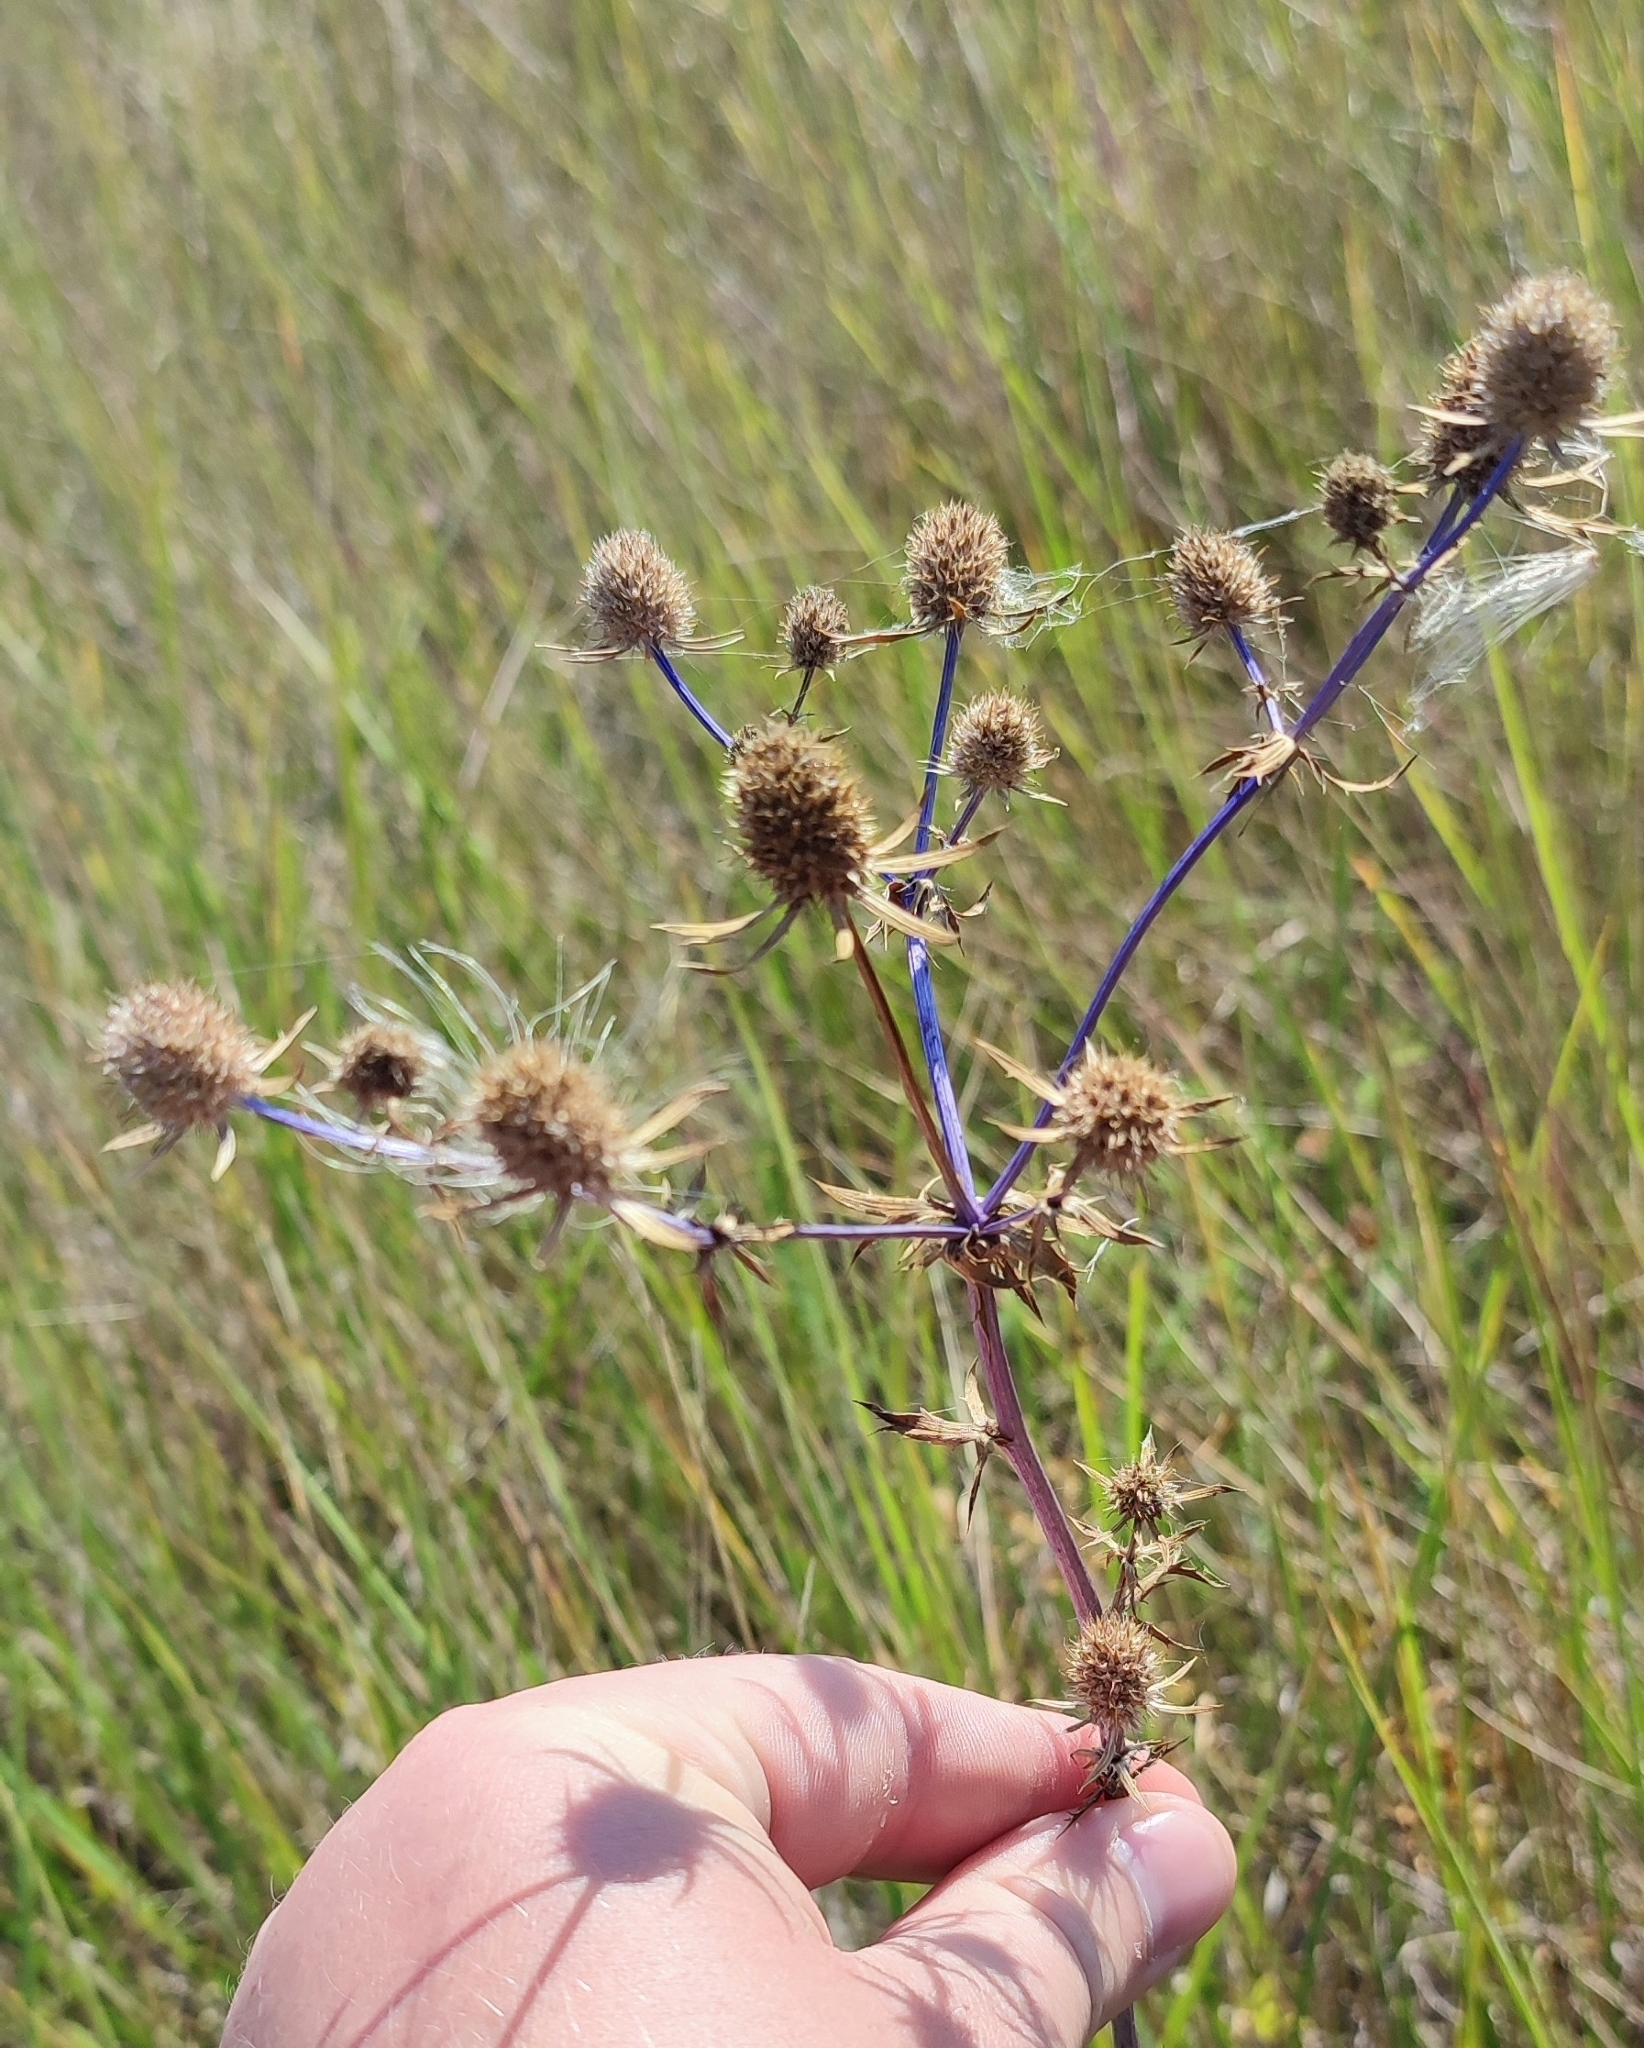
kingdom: Plantae
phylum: Tracheophyta
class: Magnoliopsida
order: Apiales
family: Apiaceae
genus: Eryngium
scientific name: Eryngium planum
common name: Blue eryngo
